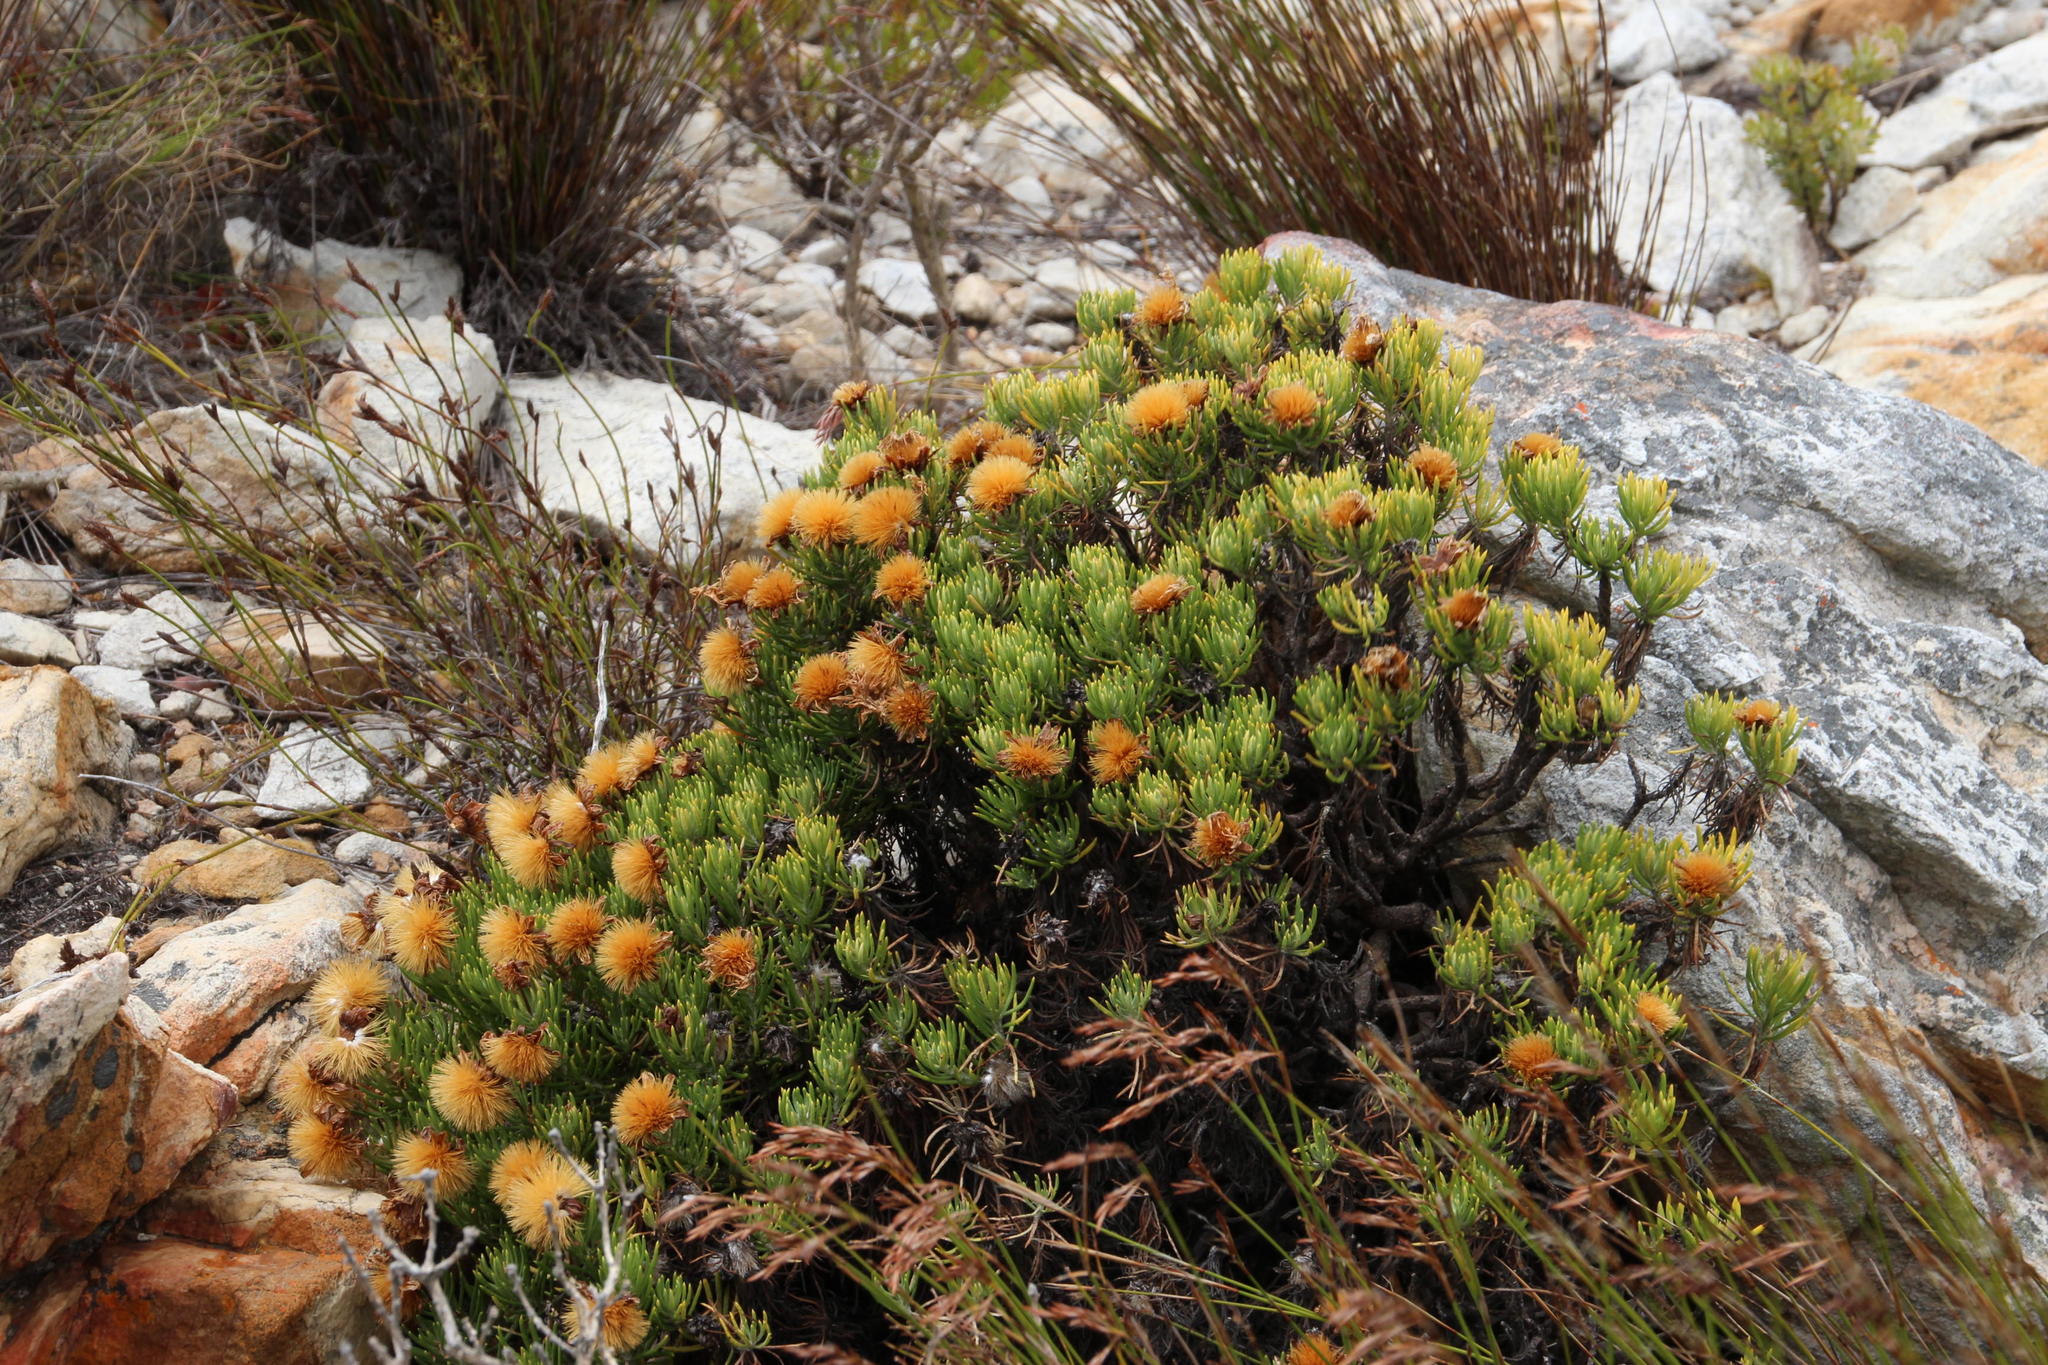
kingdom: Plantae
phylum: Tracheophyta
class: Magnoliopsida
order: Asterales
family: Asteraceae
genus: Heterolepis
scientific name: Heterolepis aliena
